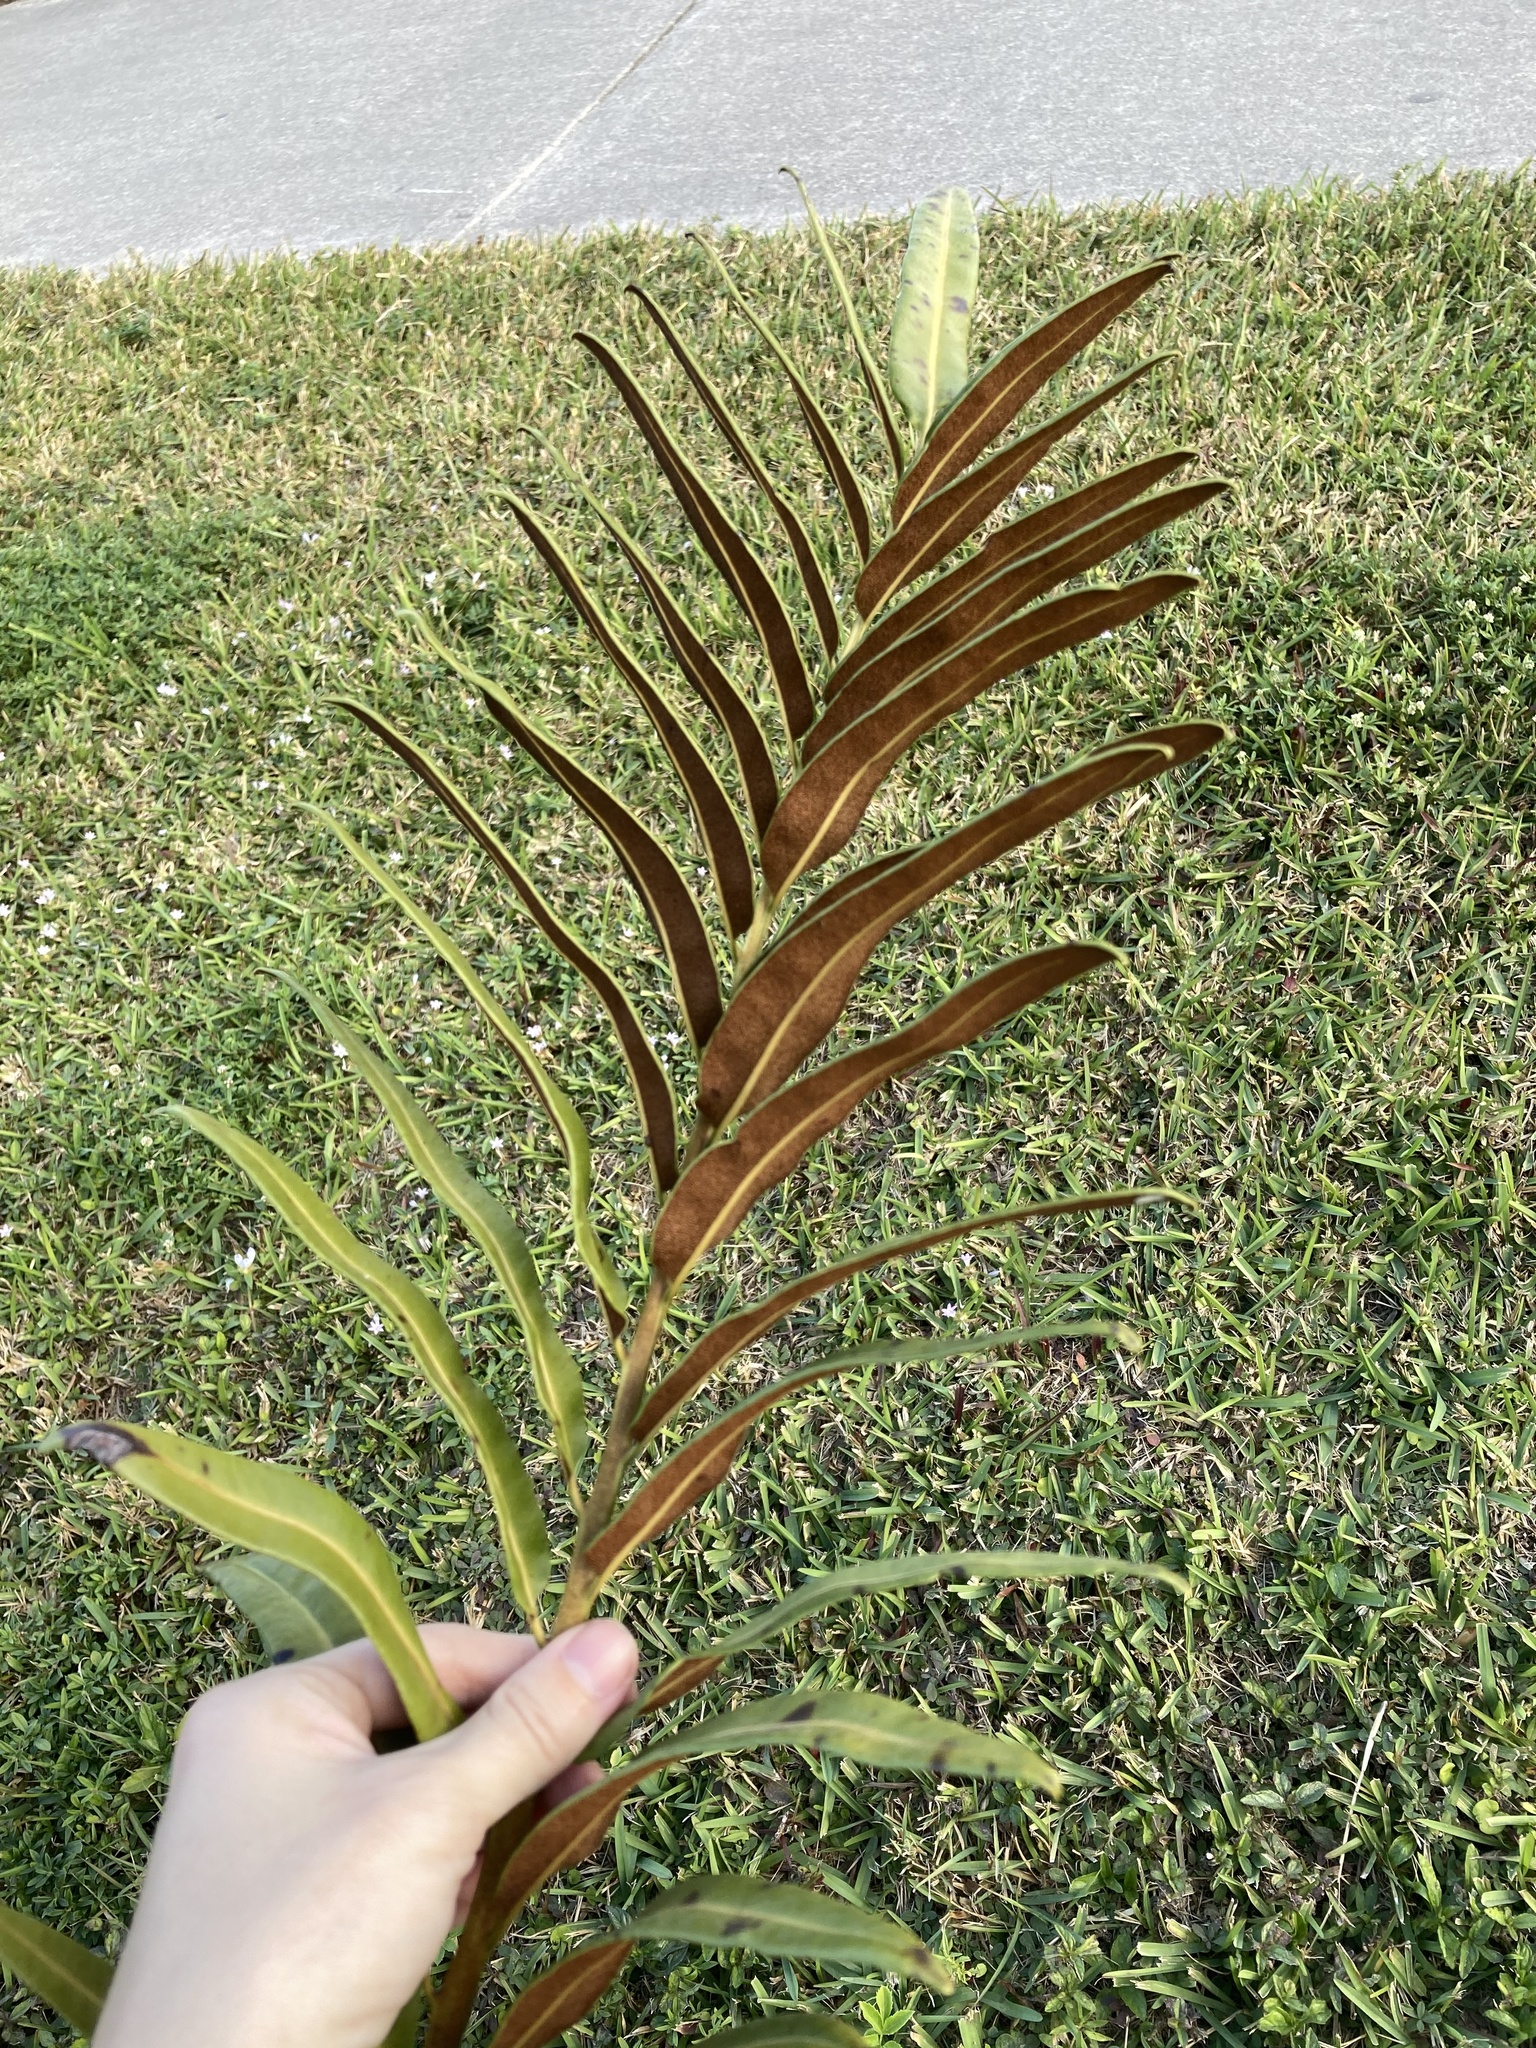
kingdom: Plantae
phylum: Tracheophyta
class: Polypodiopsida
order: Polypodiales
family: Pteridaceae
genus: Acrostichum
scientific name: Acrostichum danaeifolium
